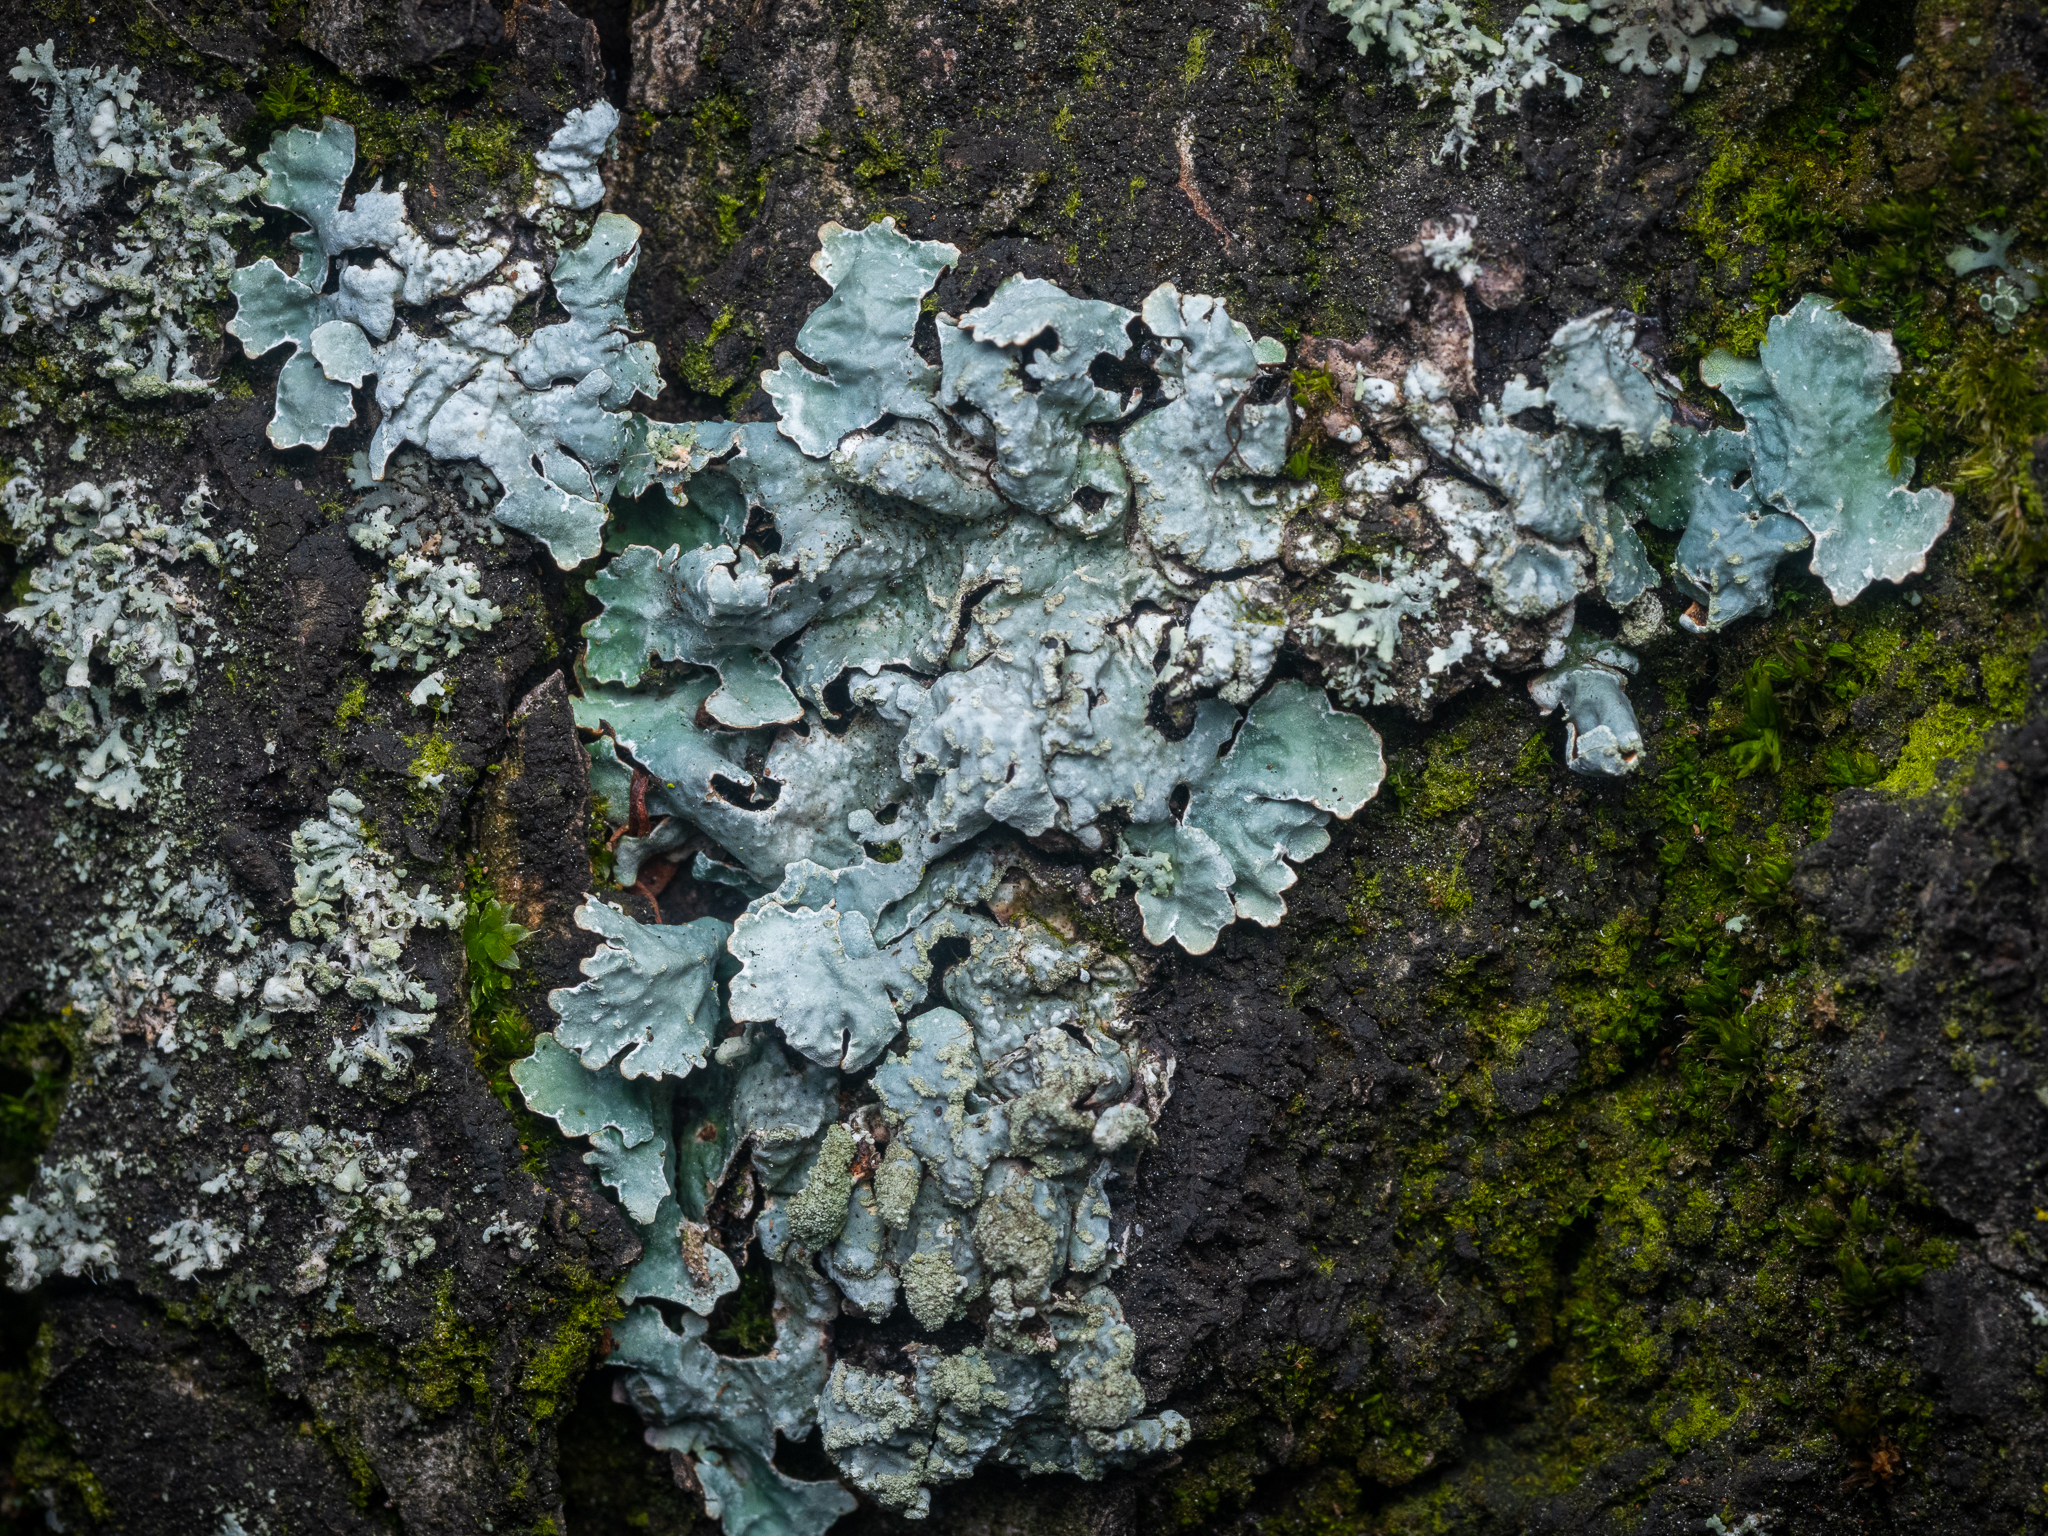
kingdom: Fungi
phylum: Ascomycota
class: Lecanoromycetes
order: Lecanorales
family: Parmeliaceae
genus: Parmelia
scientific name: Parmelia sulcata
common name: Netted shield lichen
